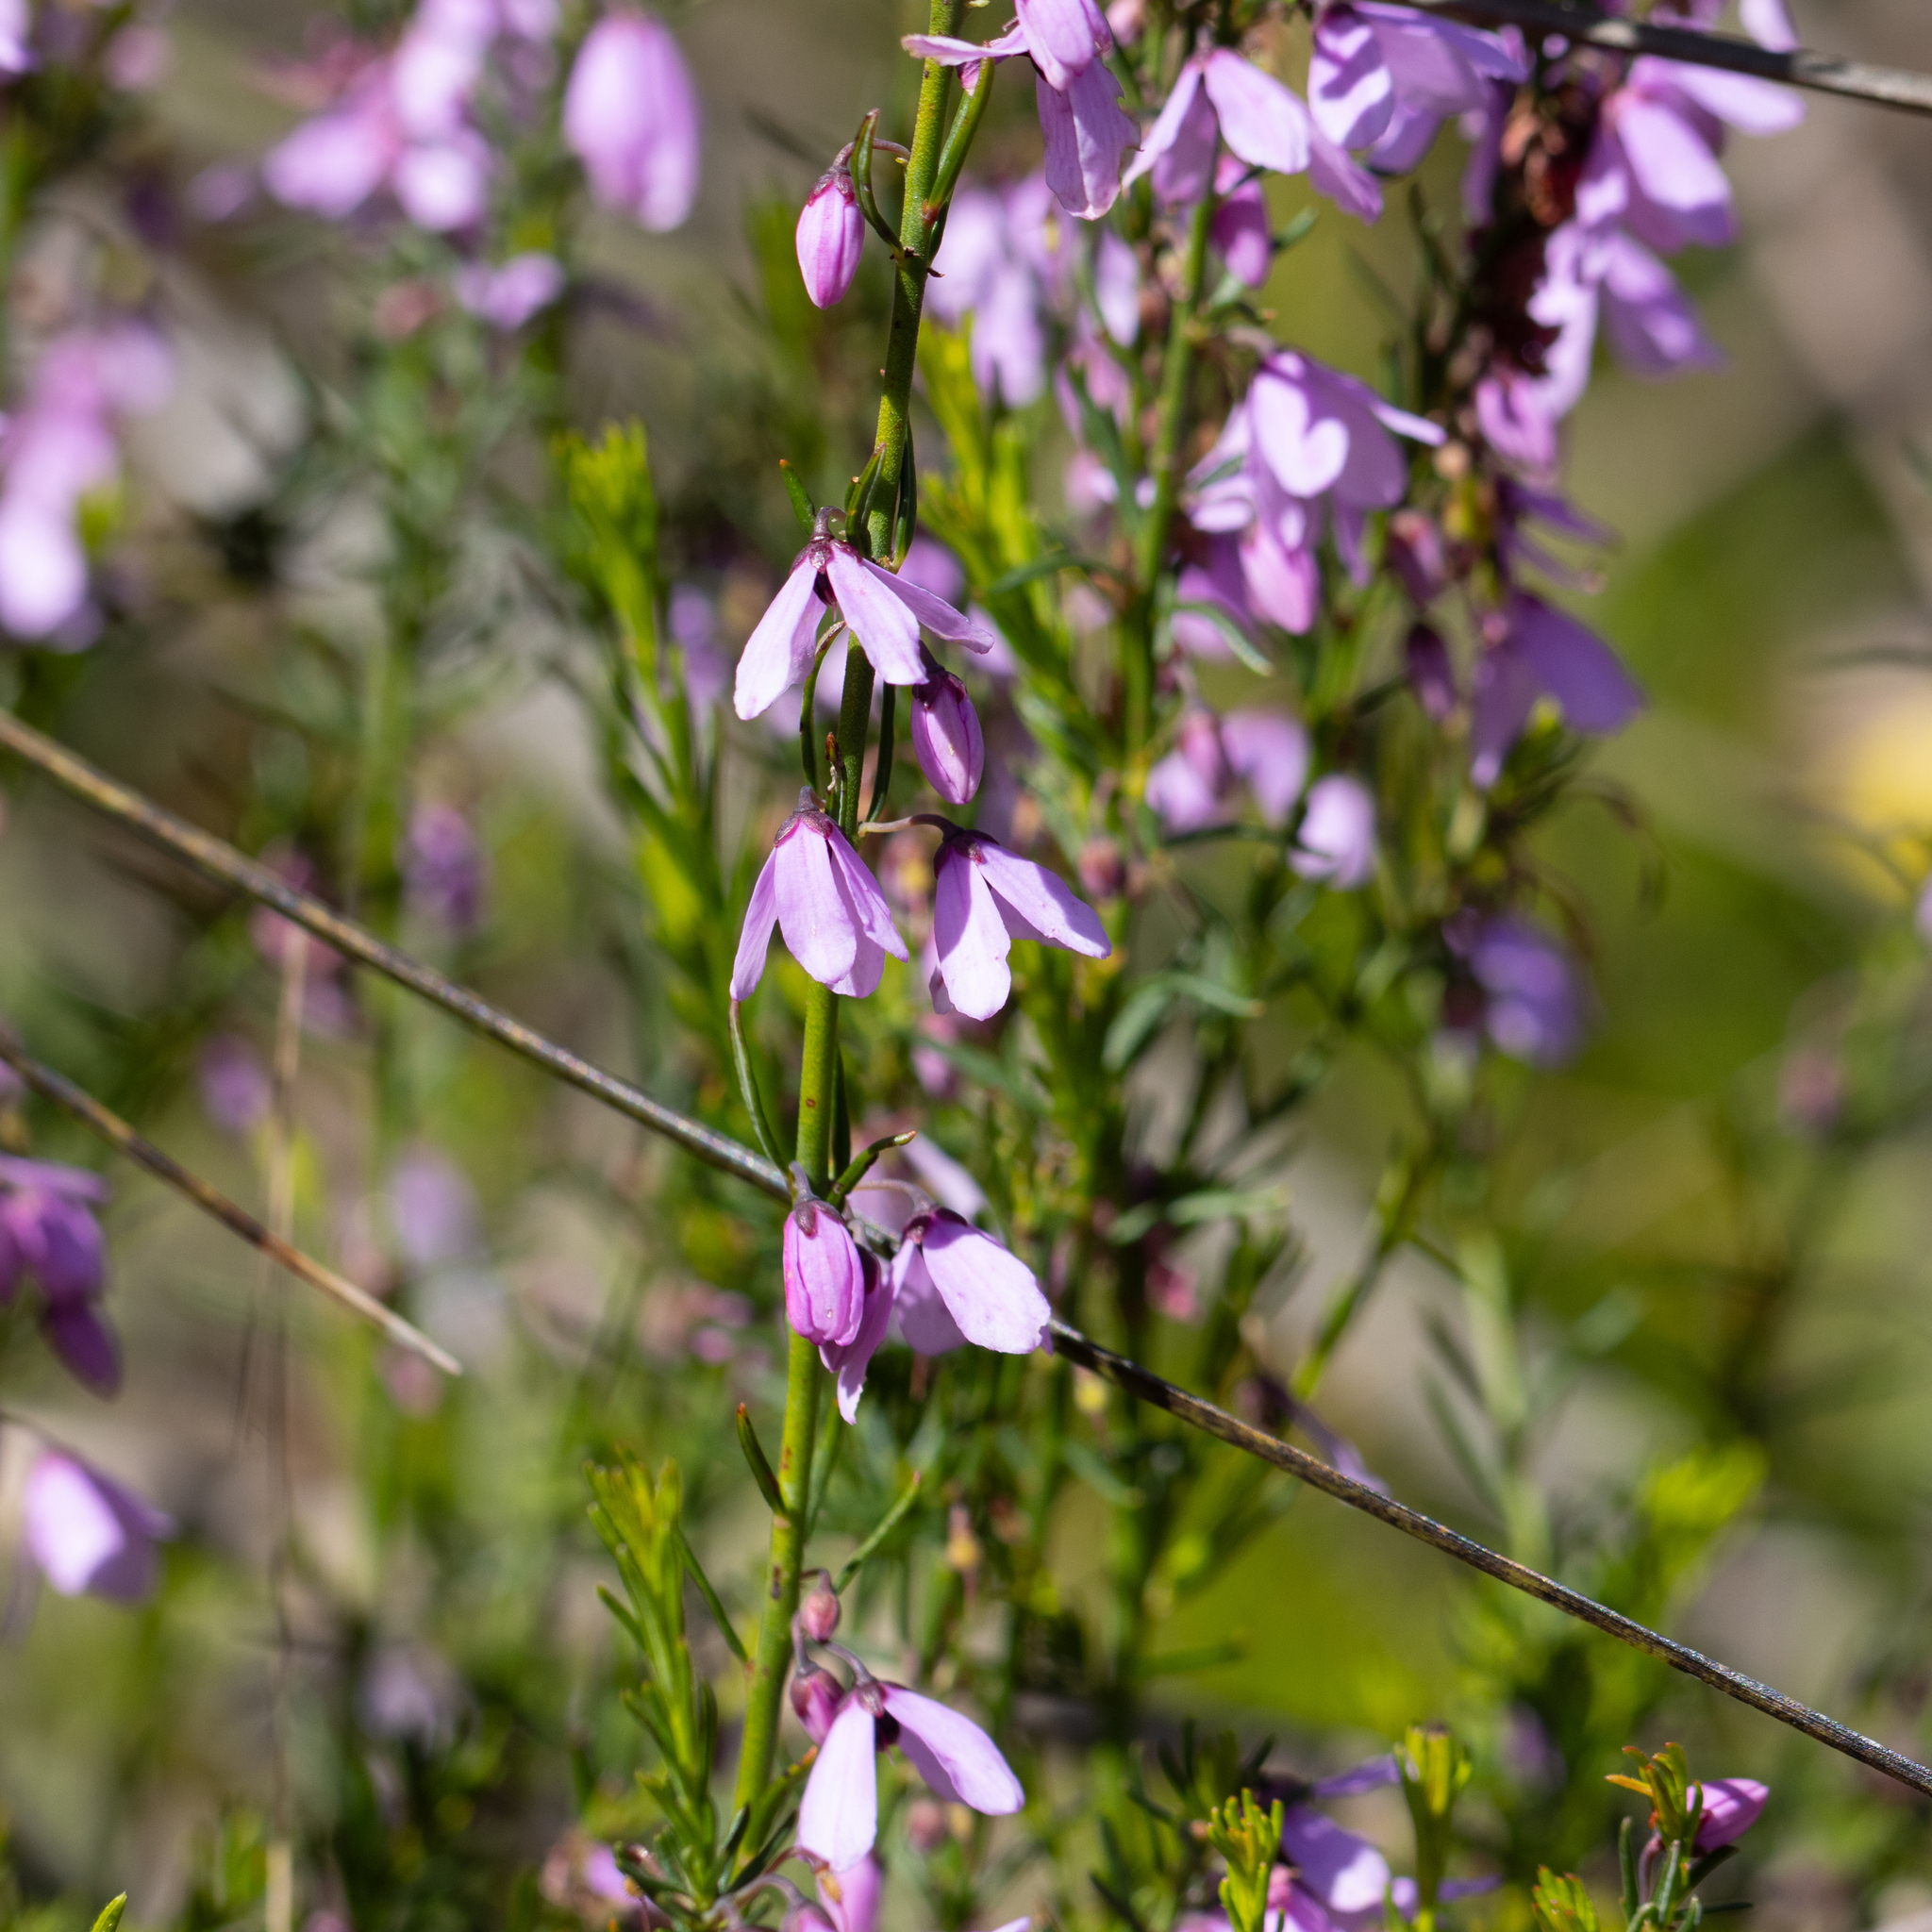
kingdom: Plantae
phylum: Tracheophyta
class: Magnoliopsida
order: Oxalidales
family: Elaeocarpaceae
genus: Tetratheca
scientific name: Tetratheca pilosa
